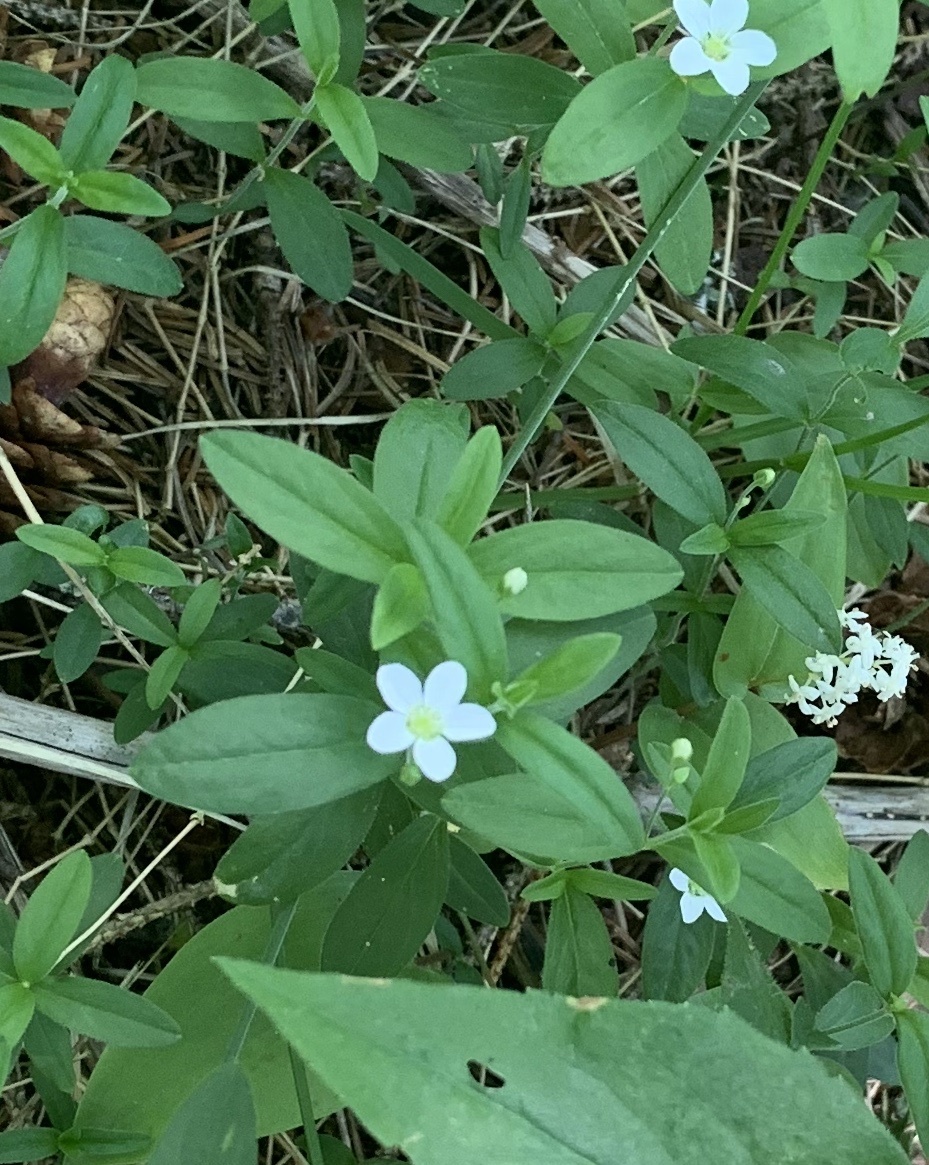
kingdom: Plantae
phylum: Tracheophyta
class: Magnoliopsida
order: Caryophyllales
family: Caryophyllaceae
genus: Moehringia
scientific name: Moehringia lateriflora
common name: Blunt-leaved sandwort
